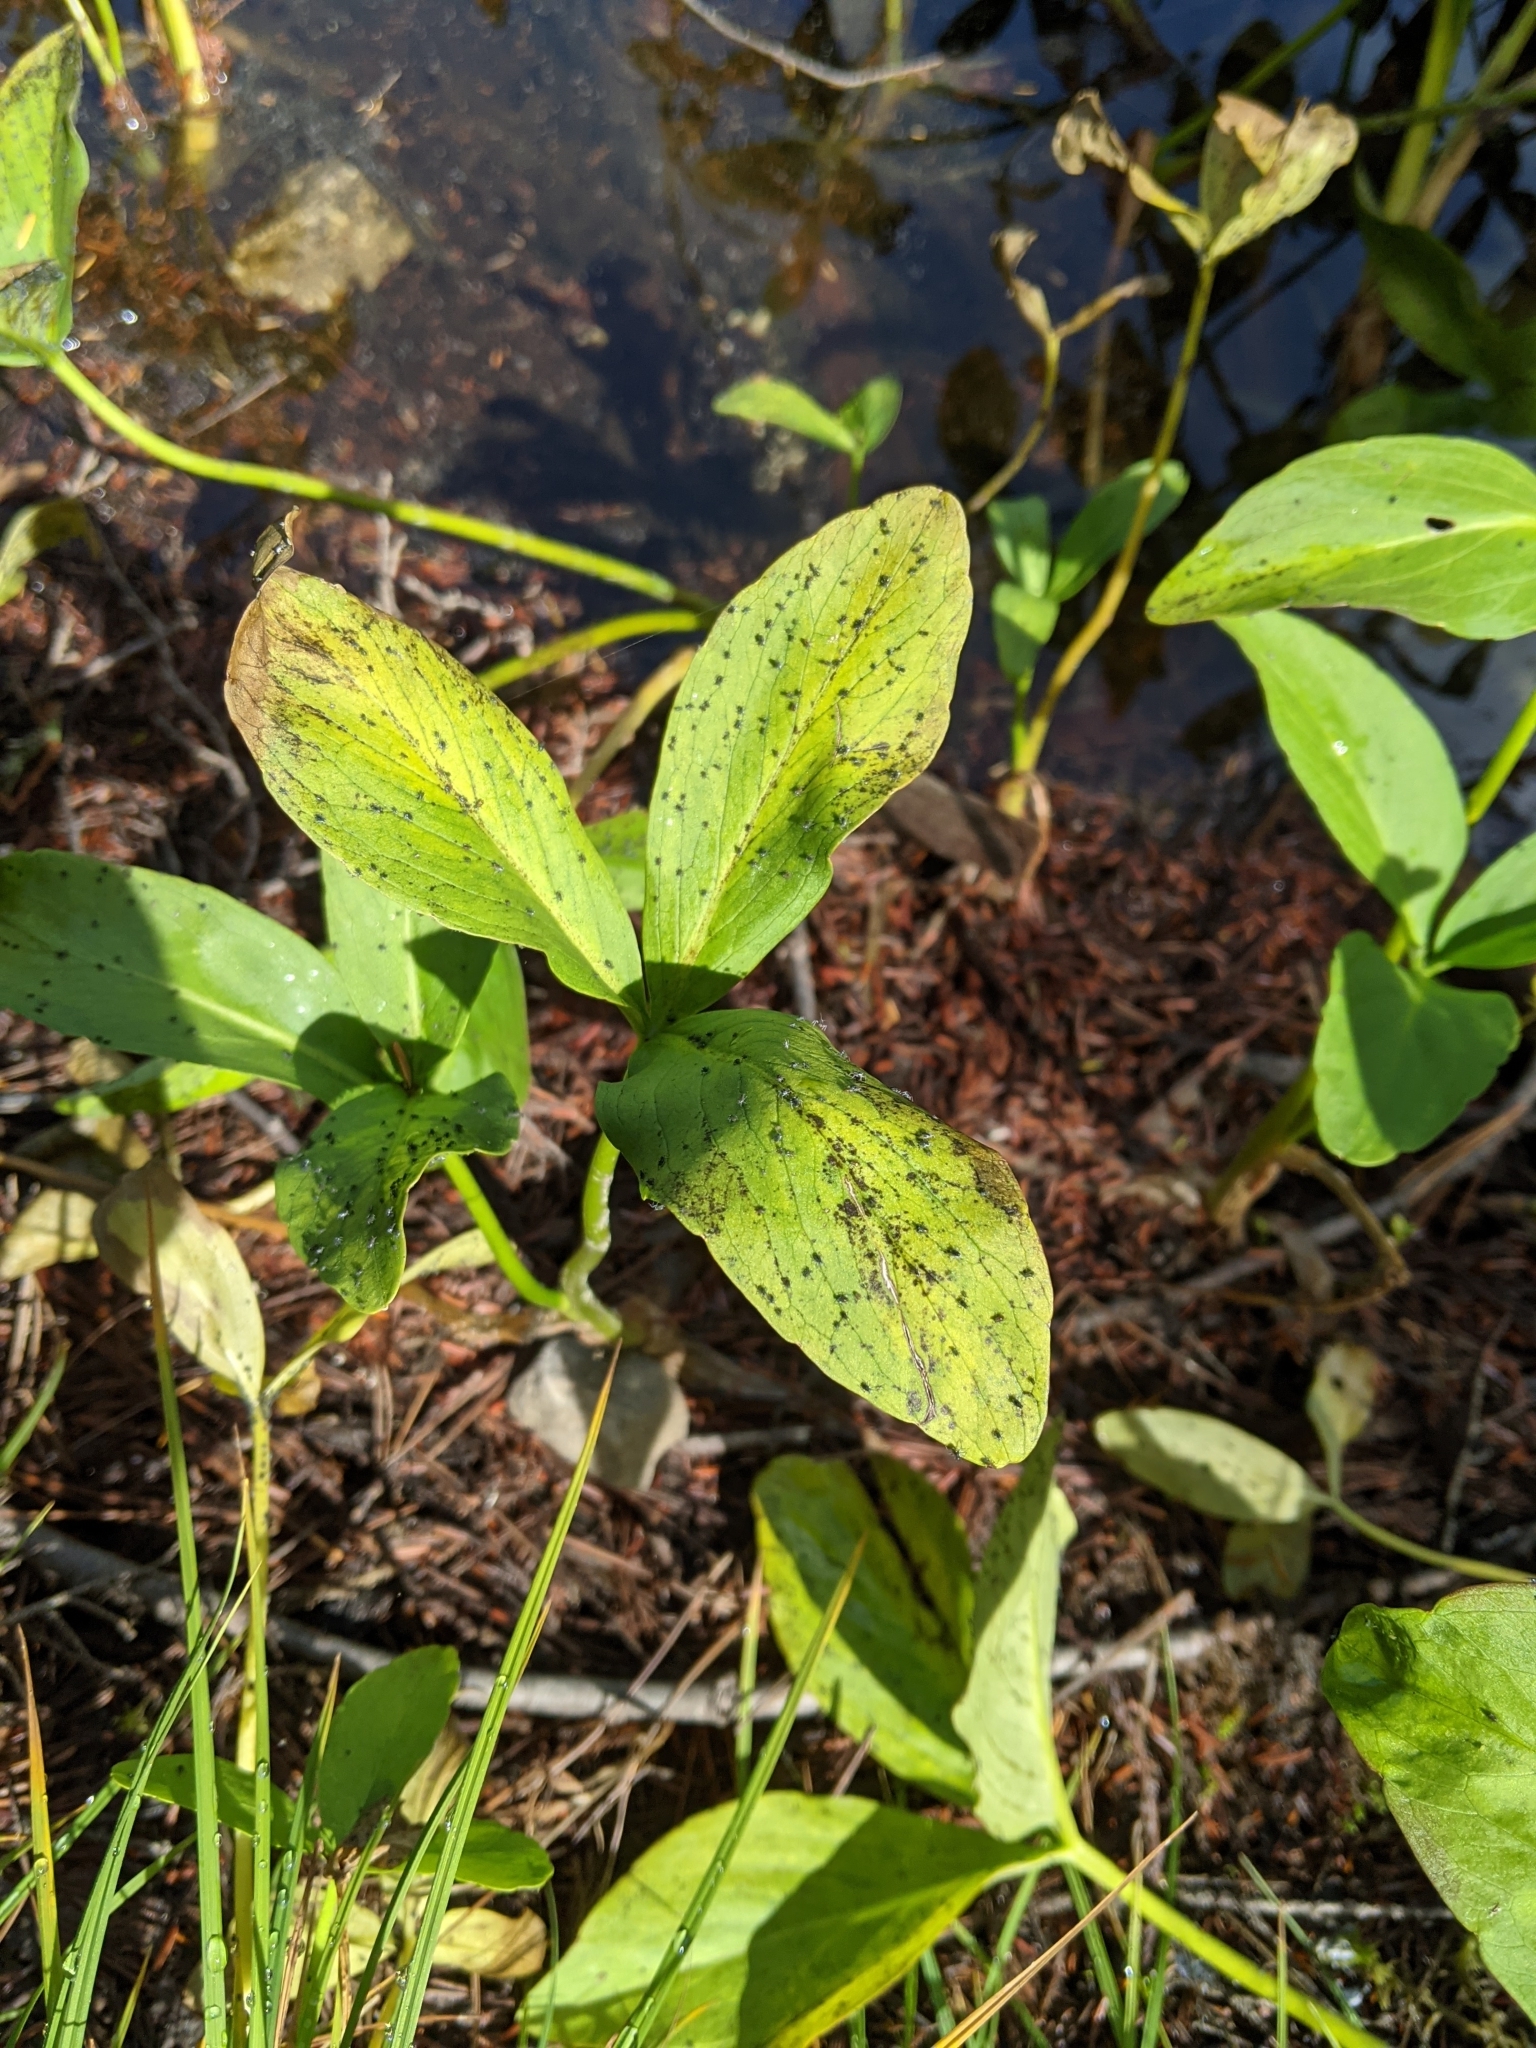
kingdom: Plantae
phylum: Tracheophyta
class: Magnoliopsida
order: Asterales
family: Menyanthaceae
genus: Menyanthes
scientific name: Menyanthes trifoliata
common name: Bogbean
